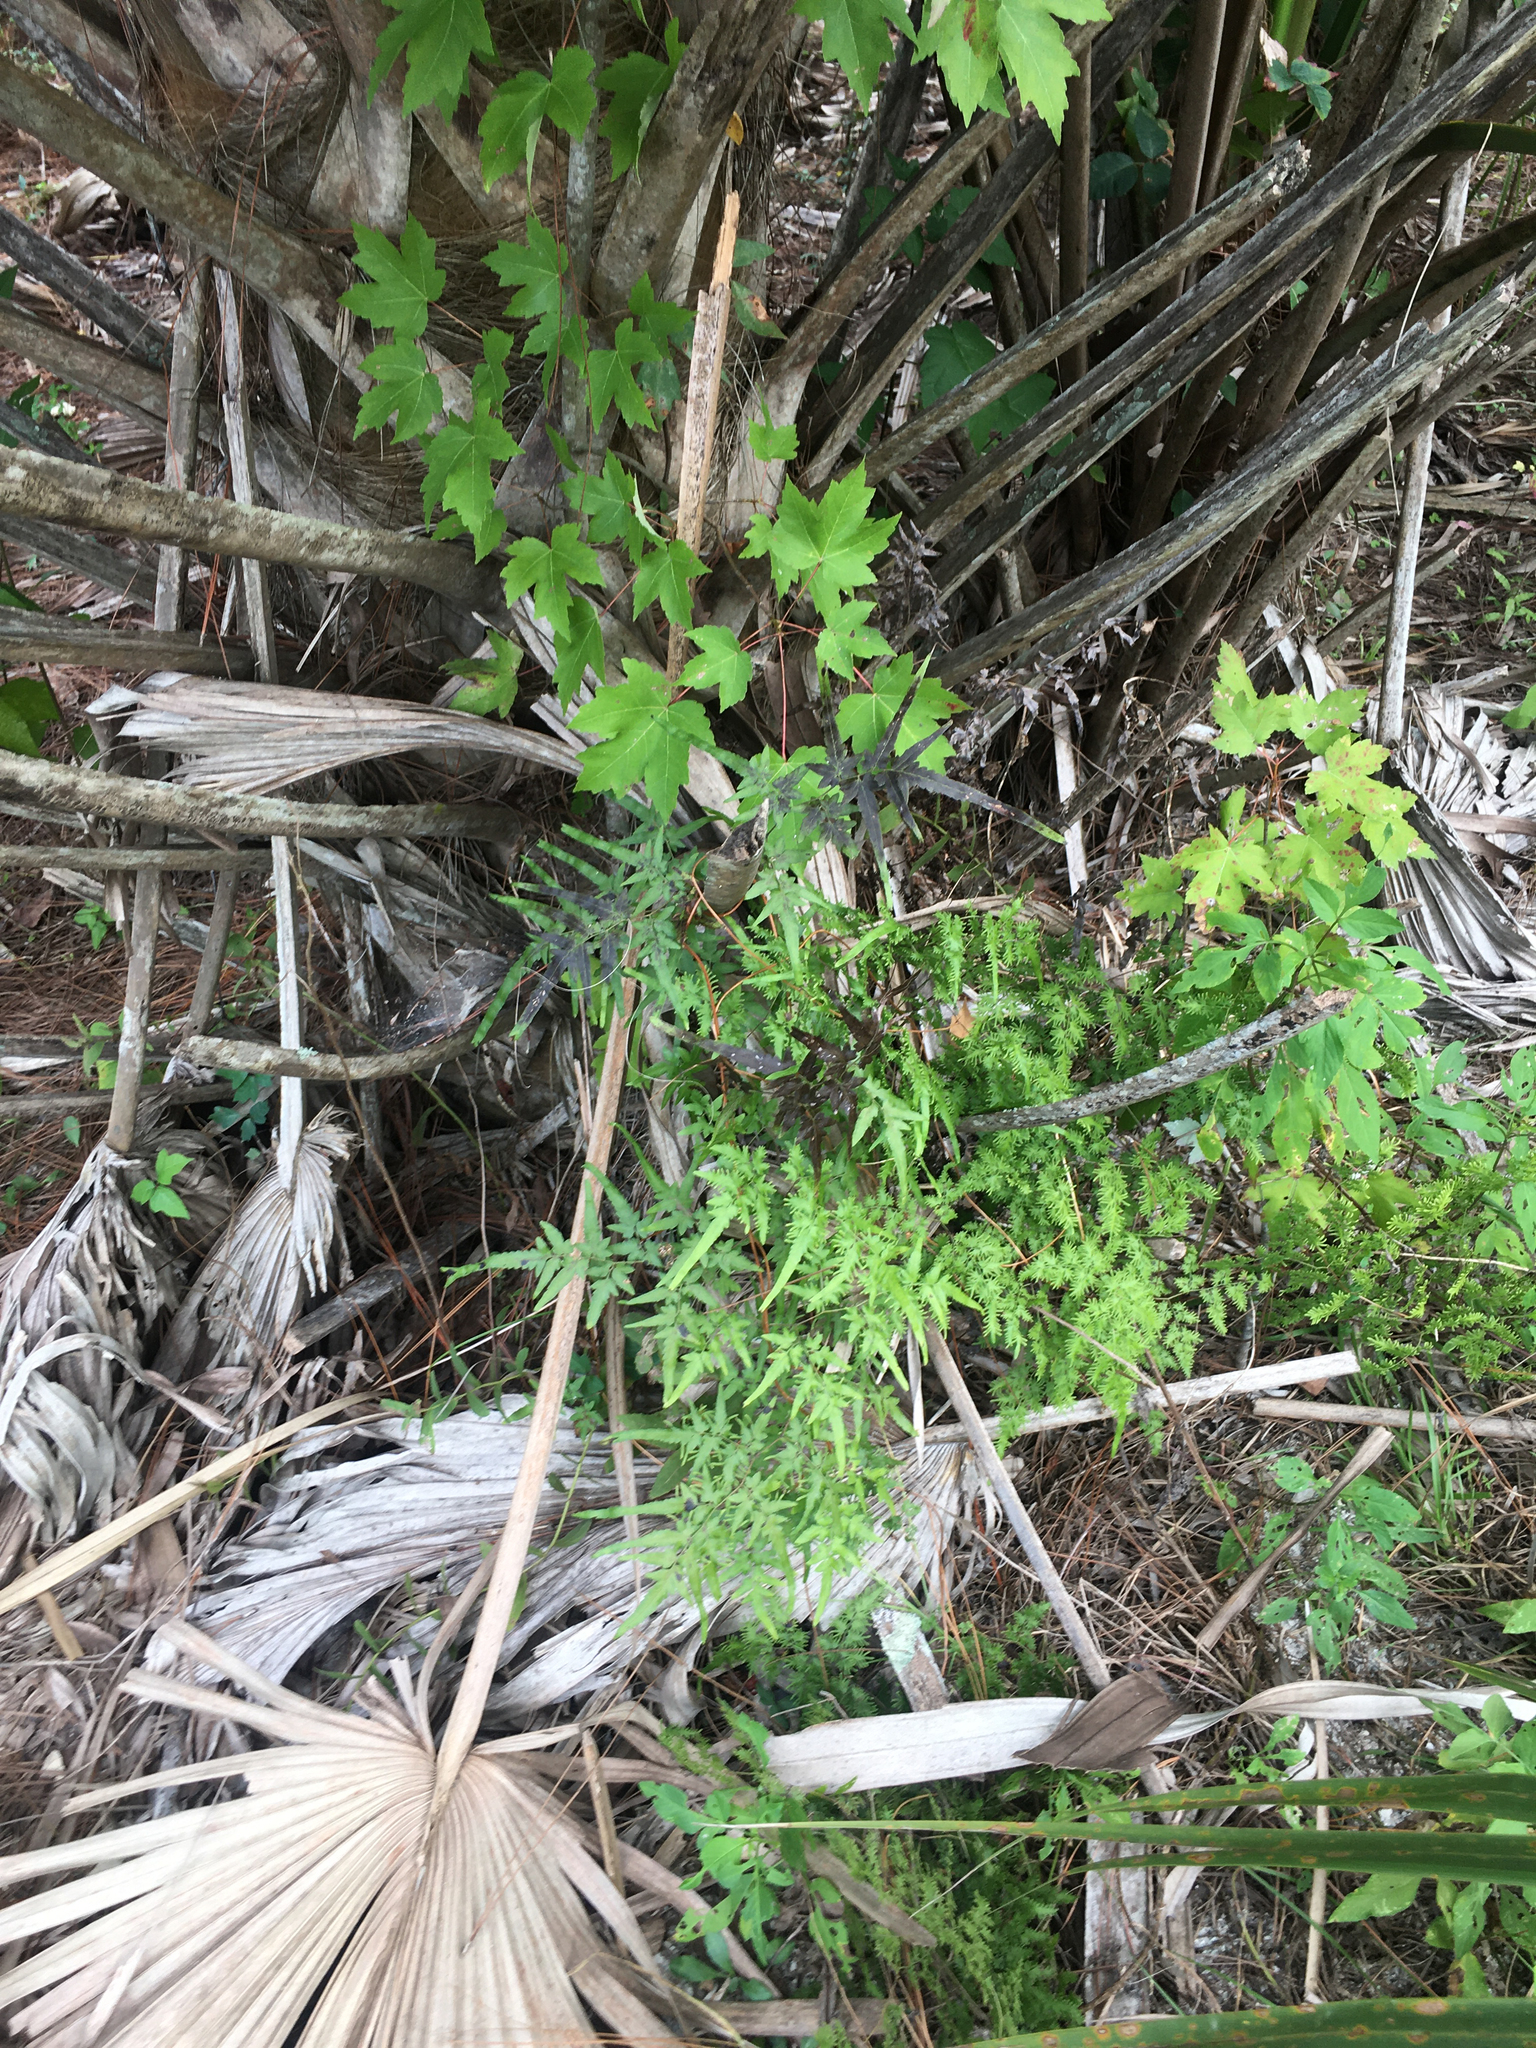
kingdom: Plantae
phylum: Tracheophyta
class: Polypodiopsida
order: Schizaeales
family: Lygodiaceae
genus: Lygodium
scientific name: Lygodium japonicum
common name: Japanese climbing fern
